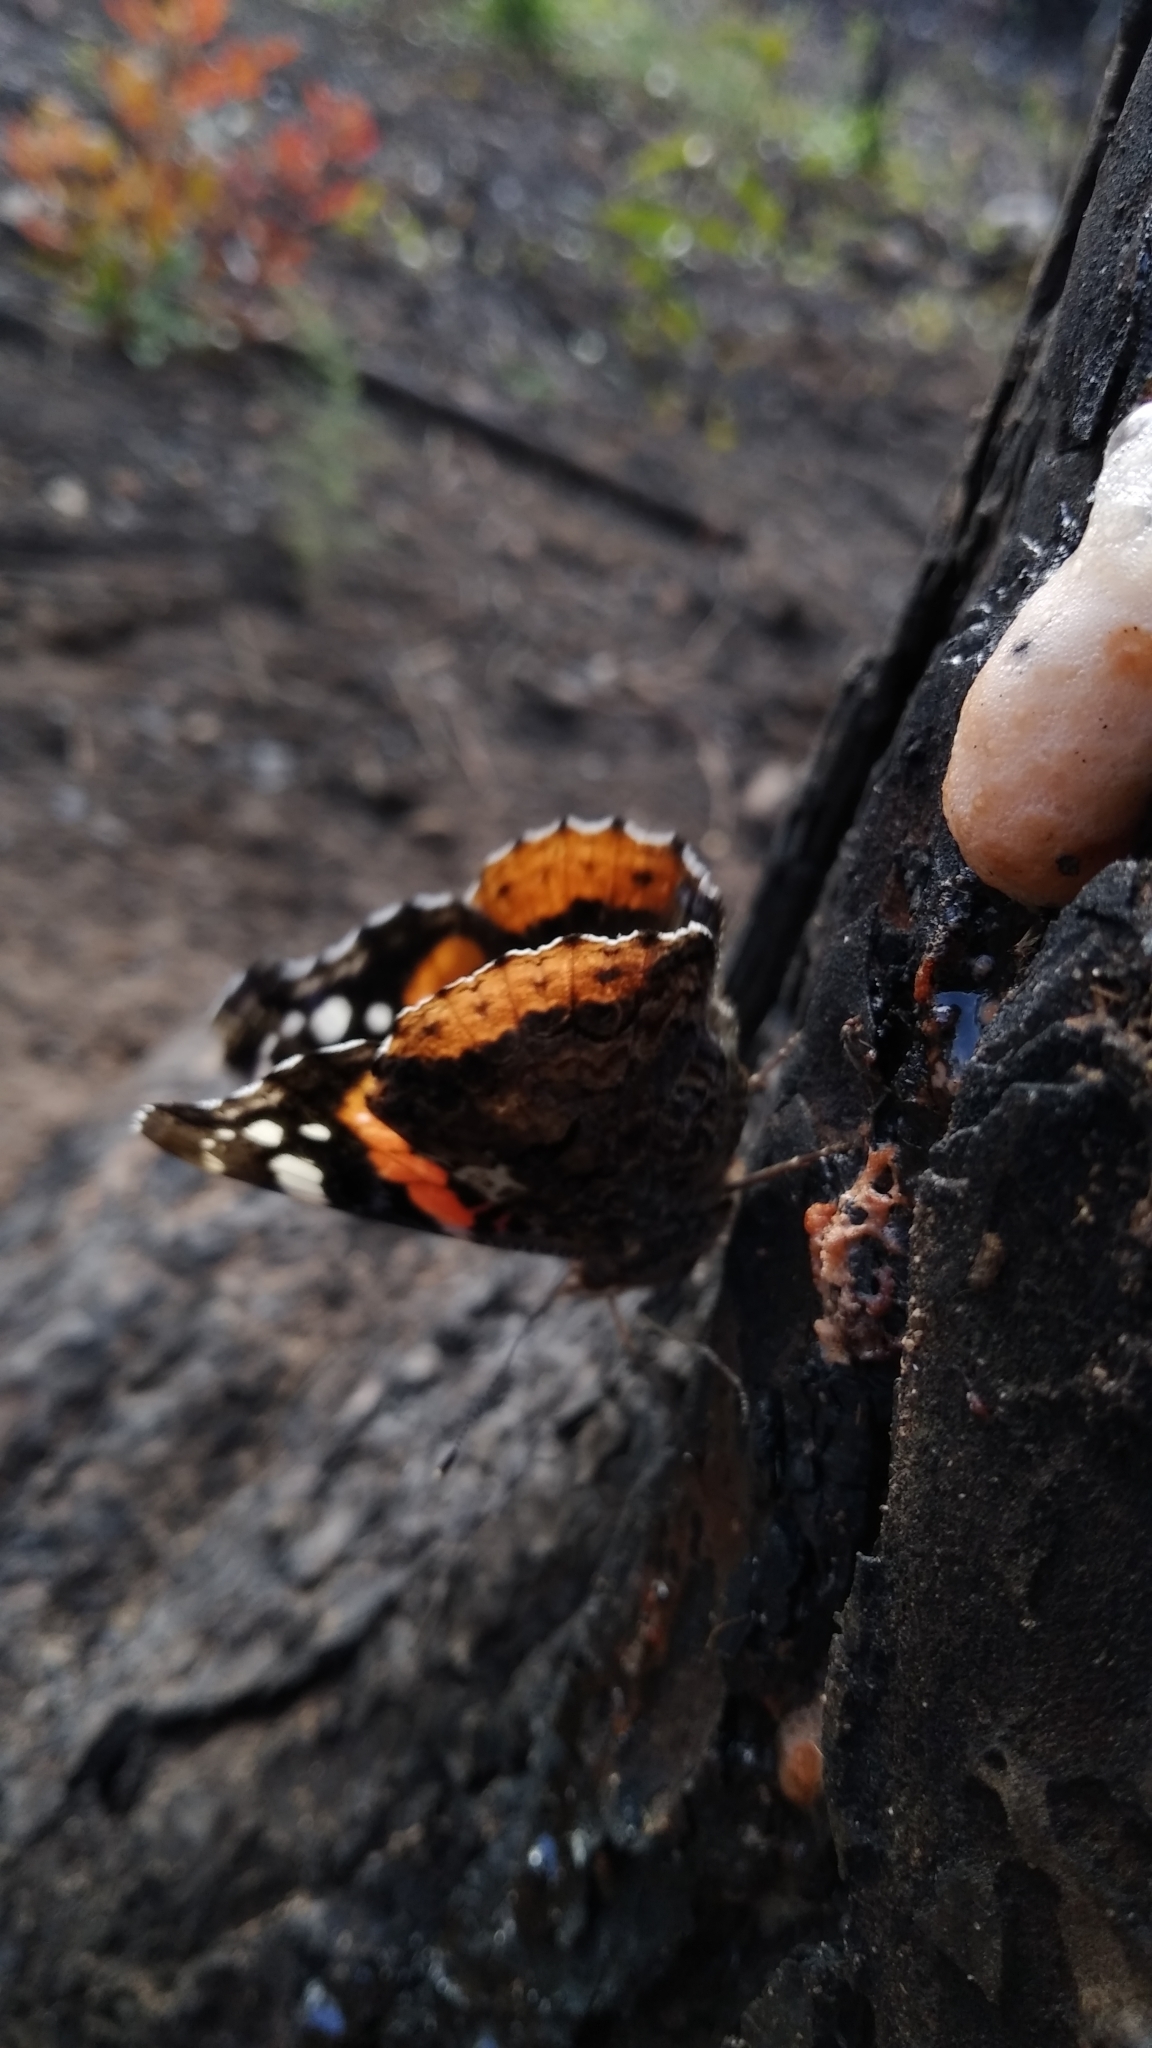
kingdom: Animalia
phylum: Arthropoda
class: Insecta
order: Lepidoptera
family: Nymphalidae
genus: Vanessa
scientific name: Vanessa atalanta
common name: Red admiral
